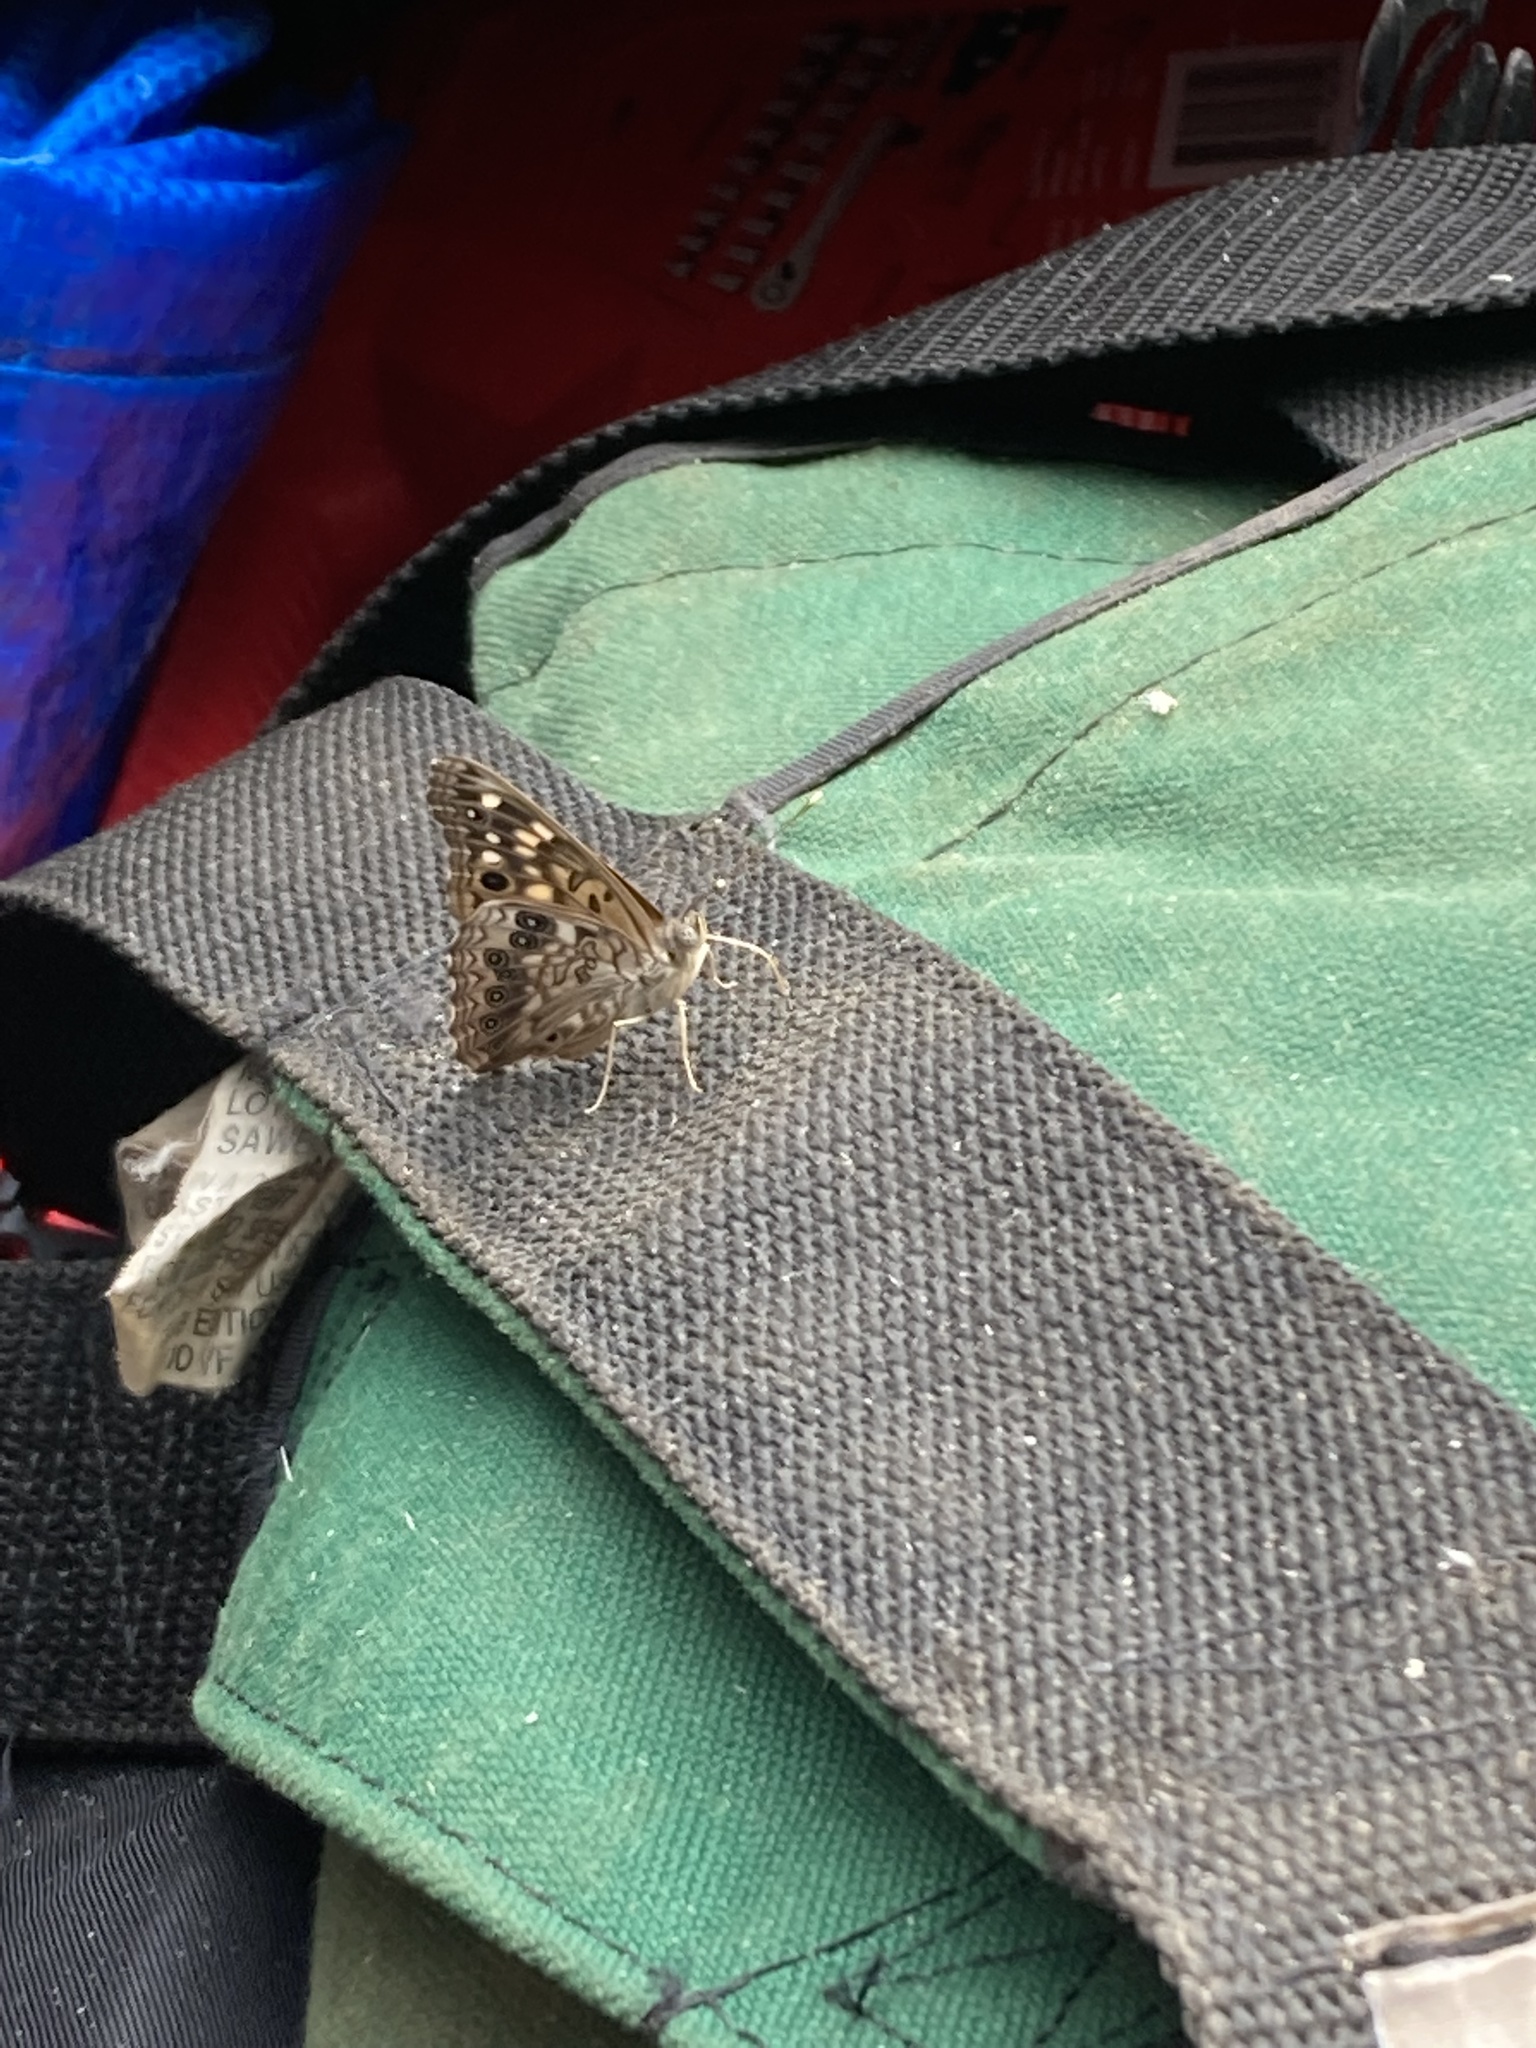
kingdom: Animalia
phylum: Arthropoda
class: Insecta
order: Lepidoptera
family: Nymphalidae
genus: Asterocampa
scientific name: Asterocampa celtis
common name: Hackberry emperor
